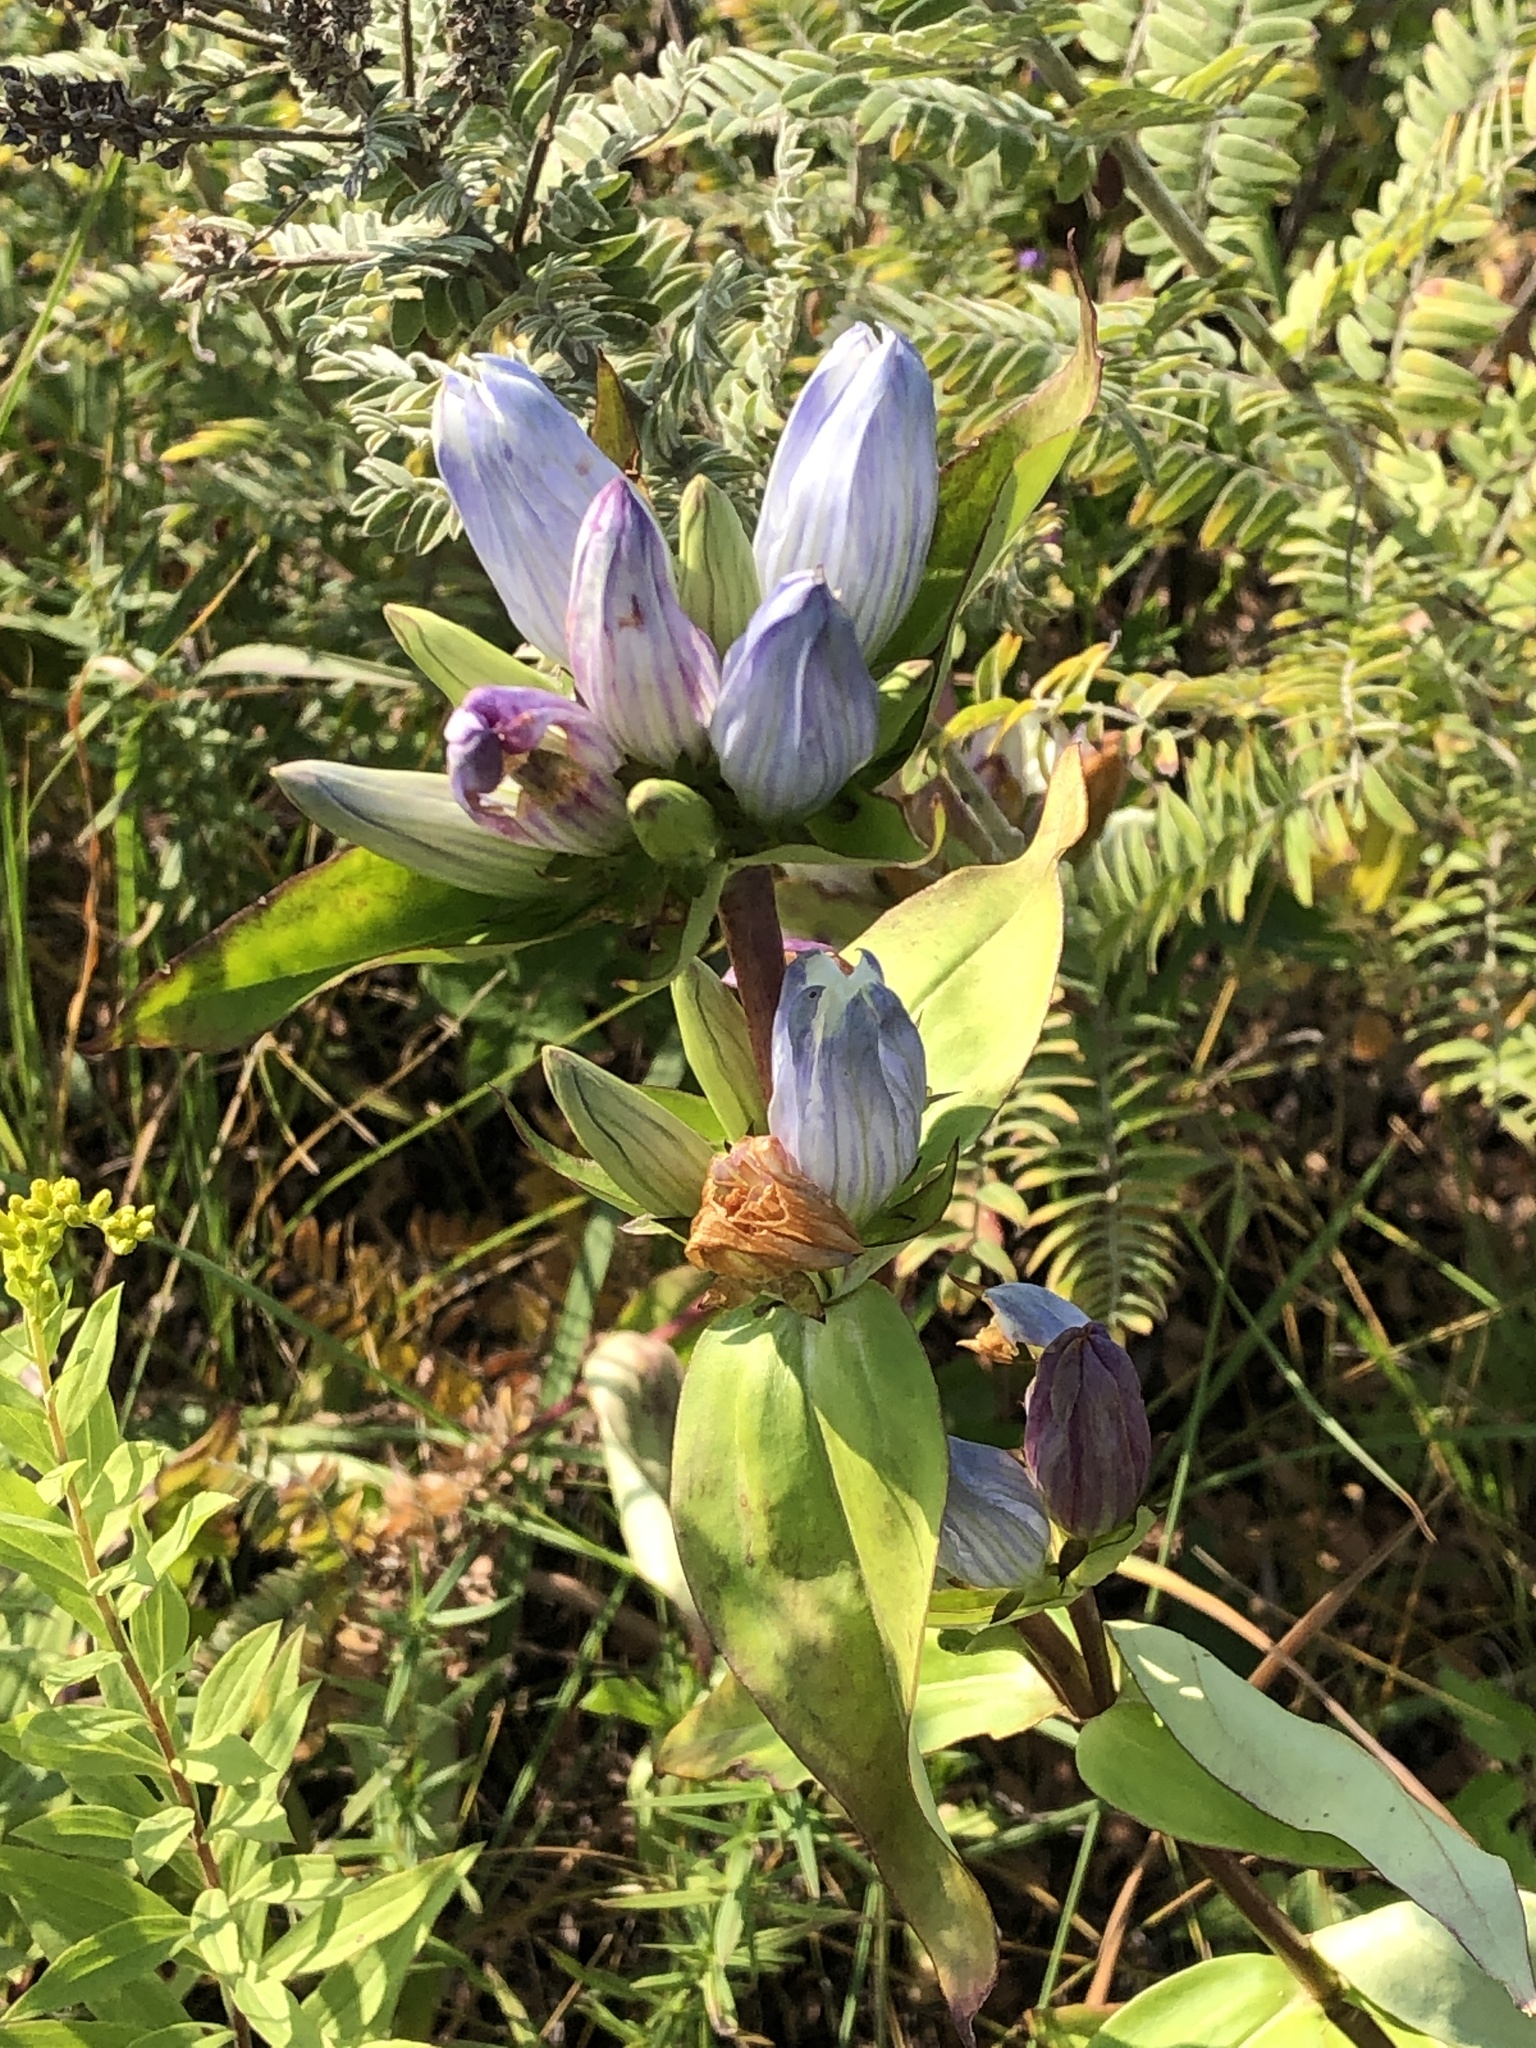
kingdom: Plantae
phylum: Tracheophyta
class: Magnoliopsida
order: Gentianales
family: Gentianaceae
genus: Gentiana
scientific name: Gentiana andrewsii
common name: Bottle gentian
